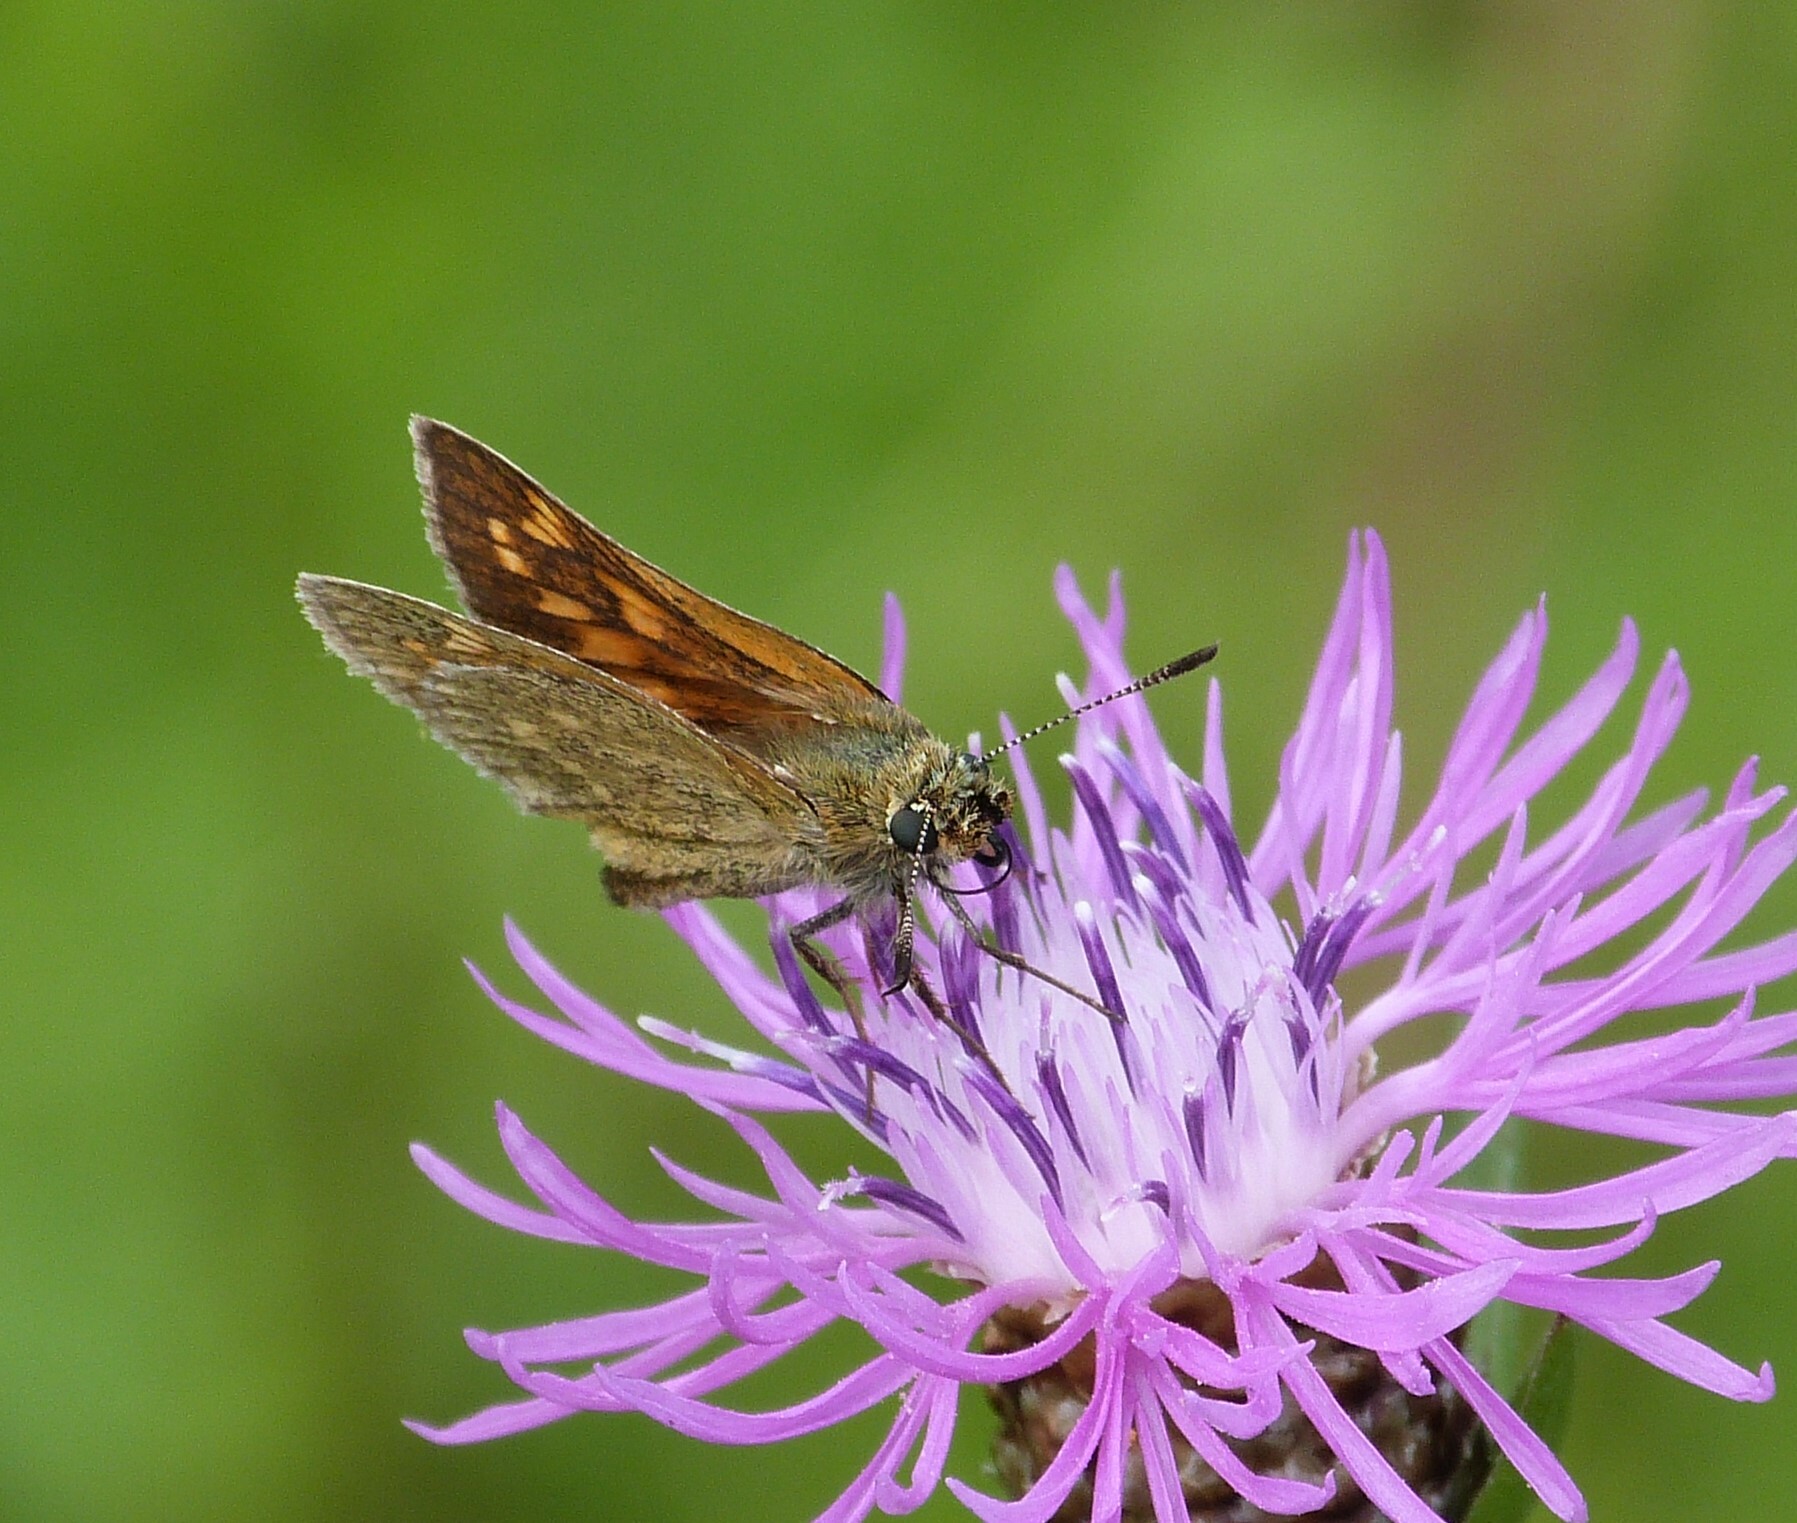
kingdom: Animalia
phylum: Arthropoda
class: Insecta
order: Lepidoptera
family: Hesperiidae
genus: Ochlodes
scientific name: Ochlodes venata
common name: Large skipper
